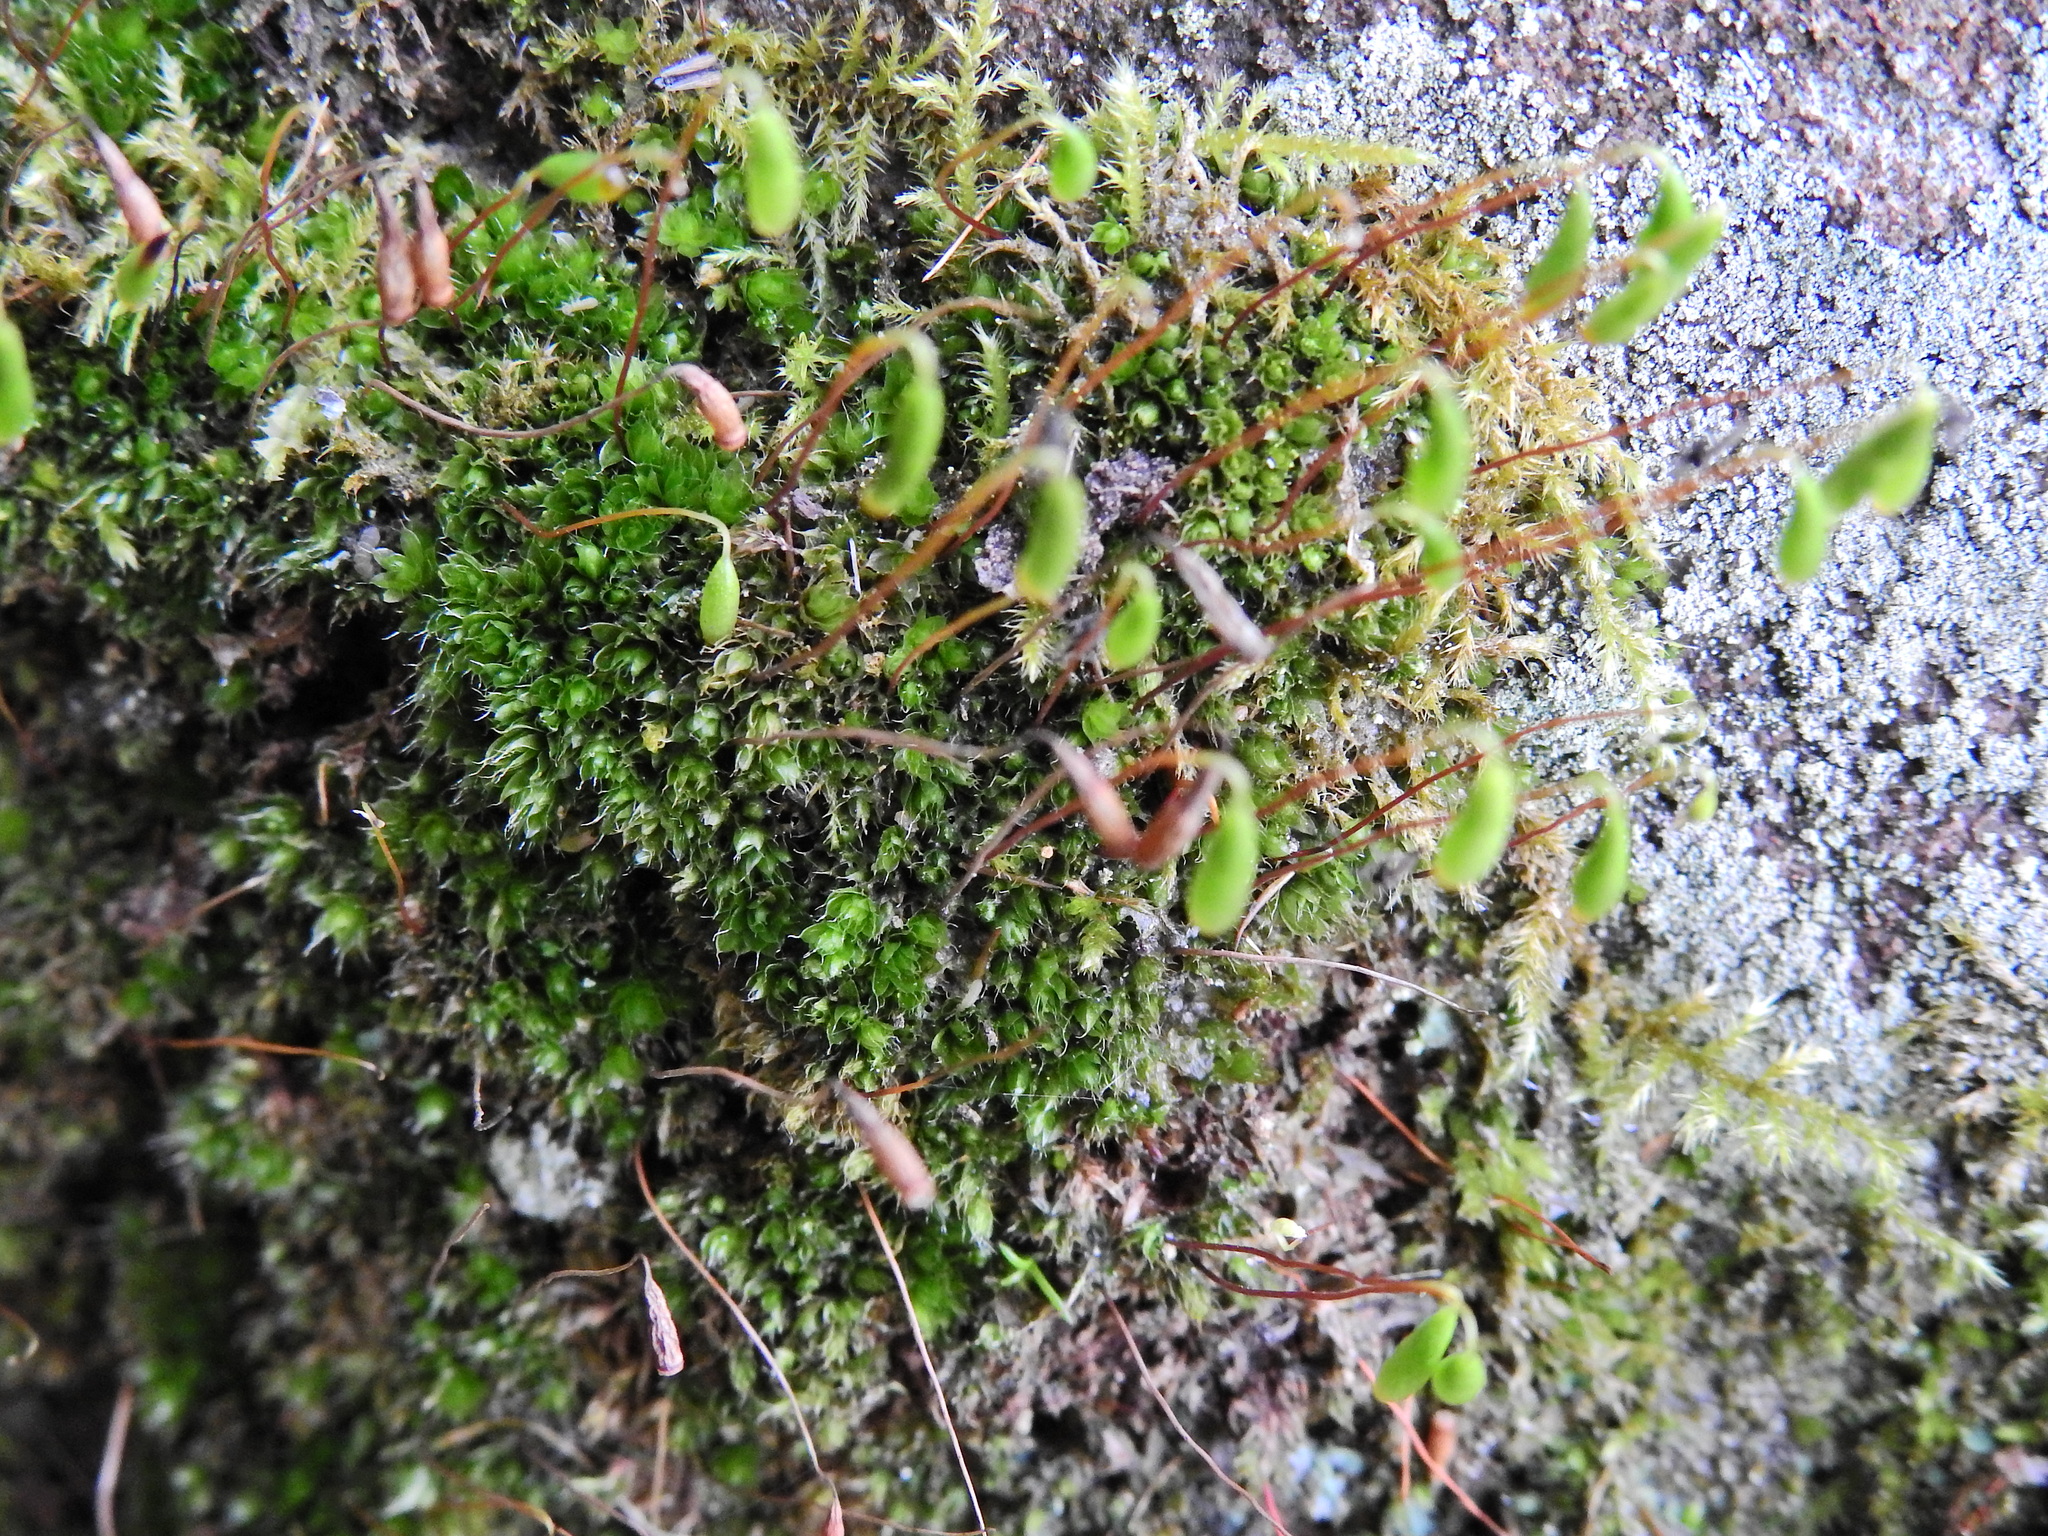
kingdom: Plantae
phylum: Bryophyta
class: Bryopsida
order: Bryales
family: Bryaceae
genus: Rosulabryum
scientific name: Rosulabryum capillare
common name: Capillary thread-moss
